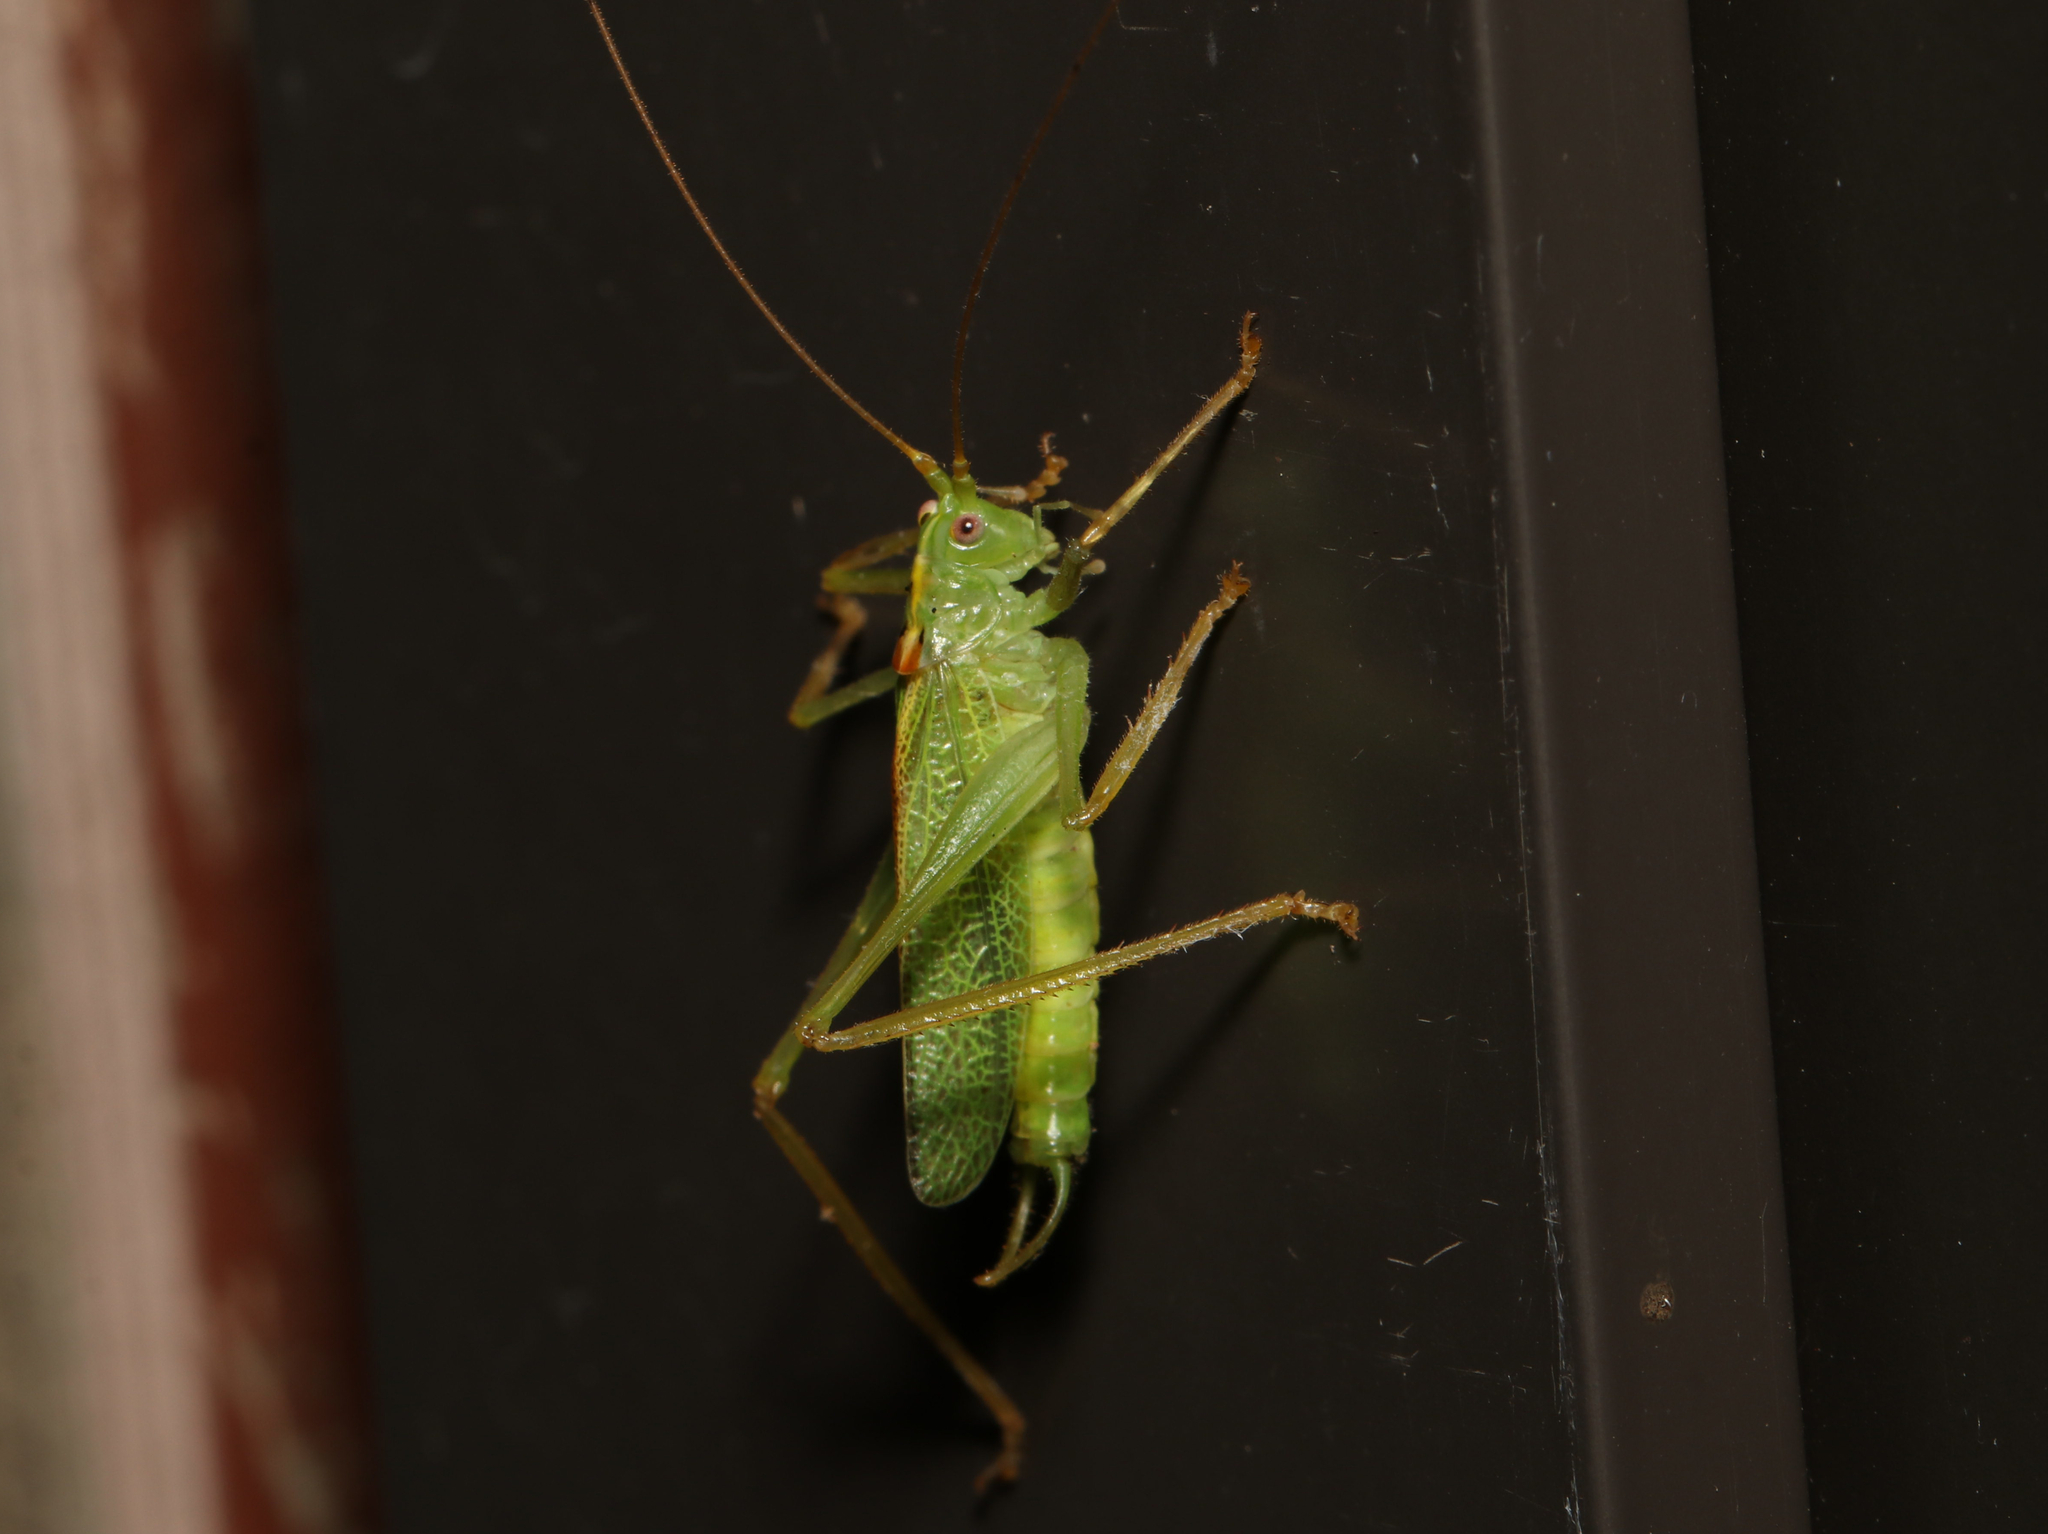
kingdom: Animalia
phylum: Arthropoda
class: Insecta
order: Orthoptera
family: Tettigoniidae
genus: Meconema
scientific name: Meconema thalassinum
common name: Oak bush-cricket
